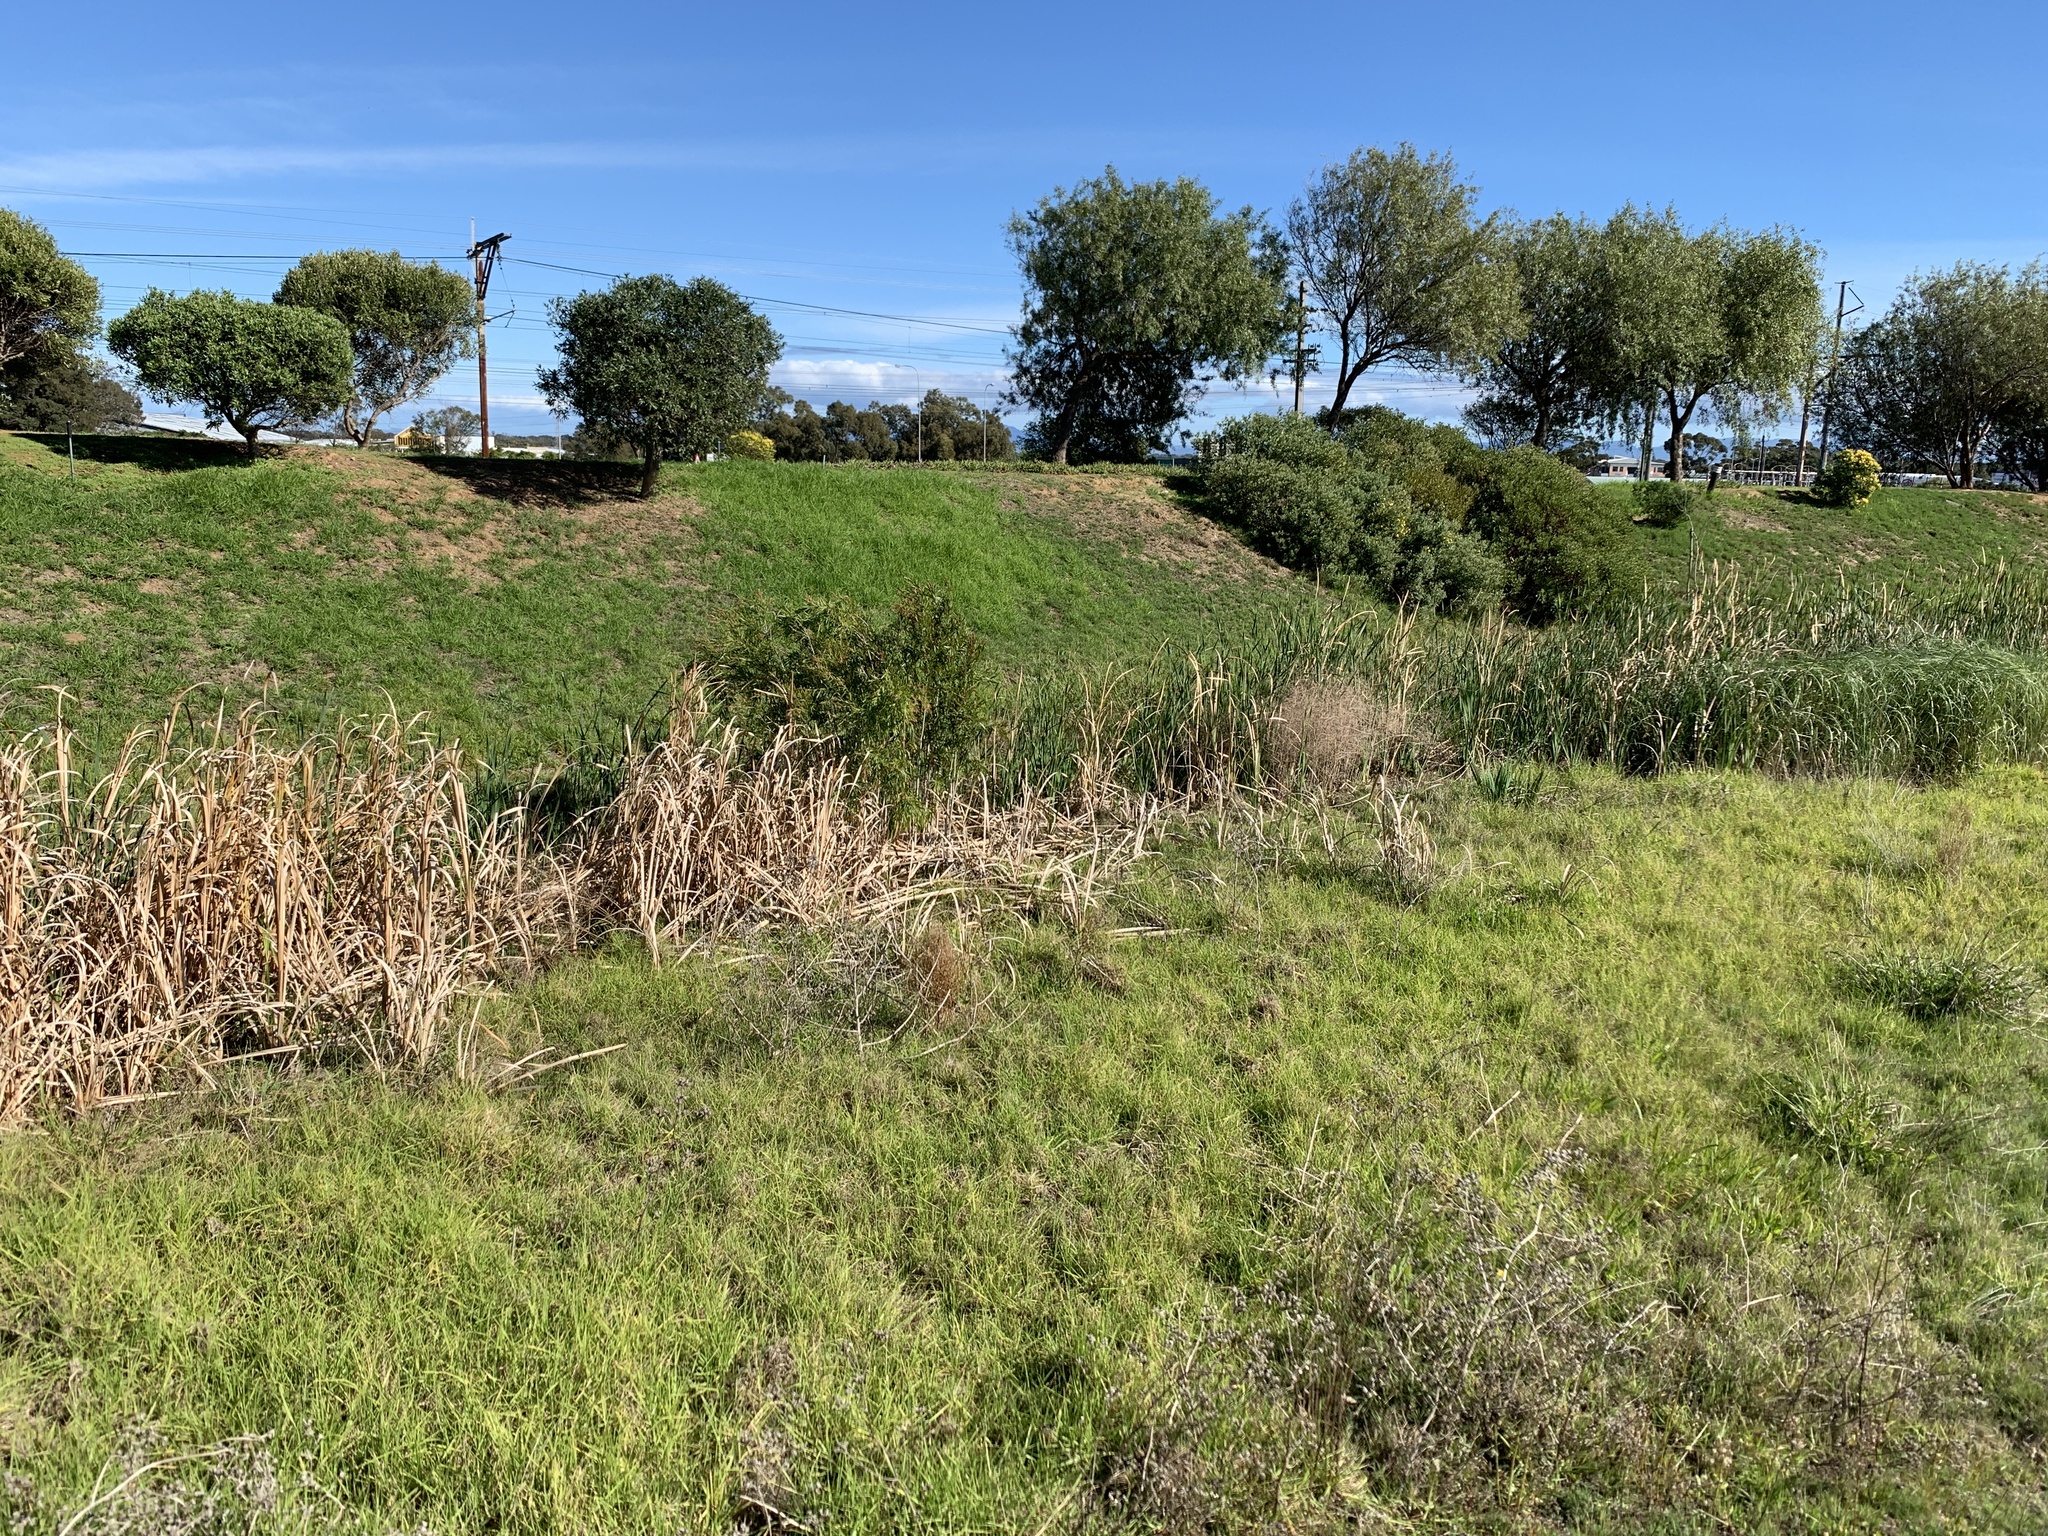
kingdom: Plantae
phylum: Tracheophyta
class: Magnoliopsida
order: Myrtales
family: Myrtaceae
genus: Callistemon
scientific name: Callistemon viminalis
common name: Drooping bottlebrush
